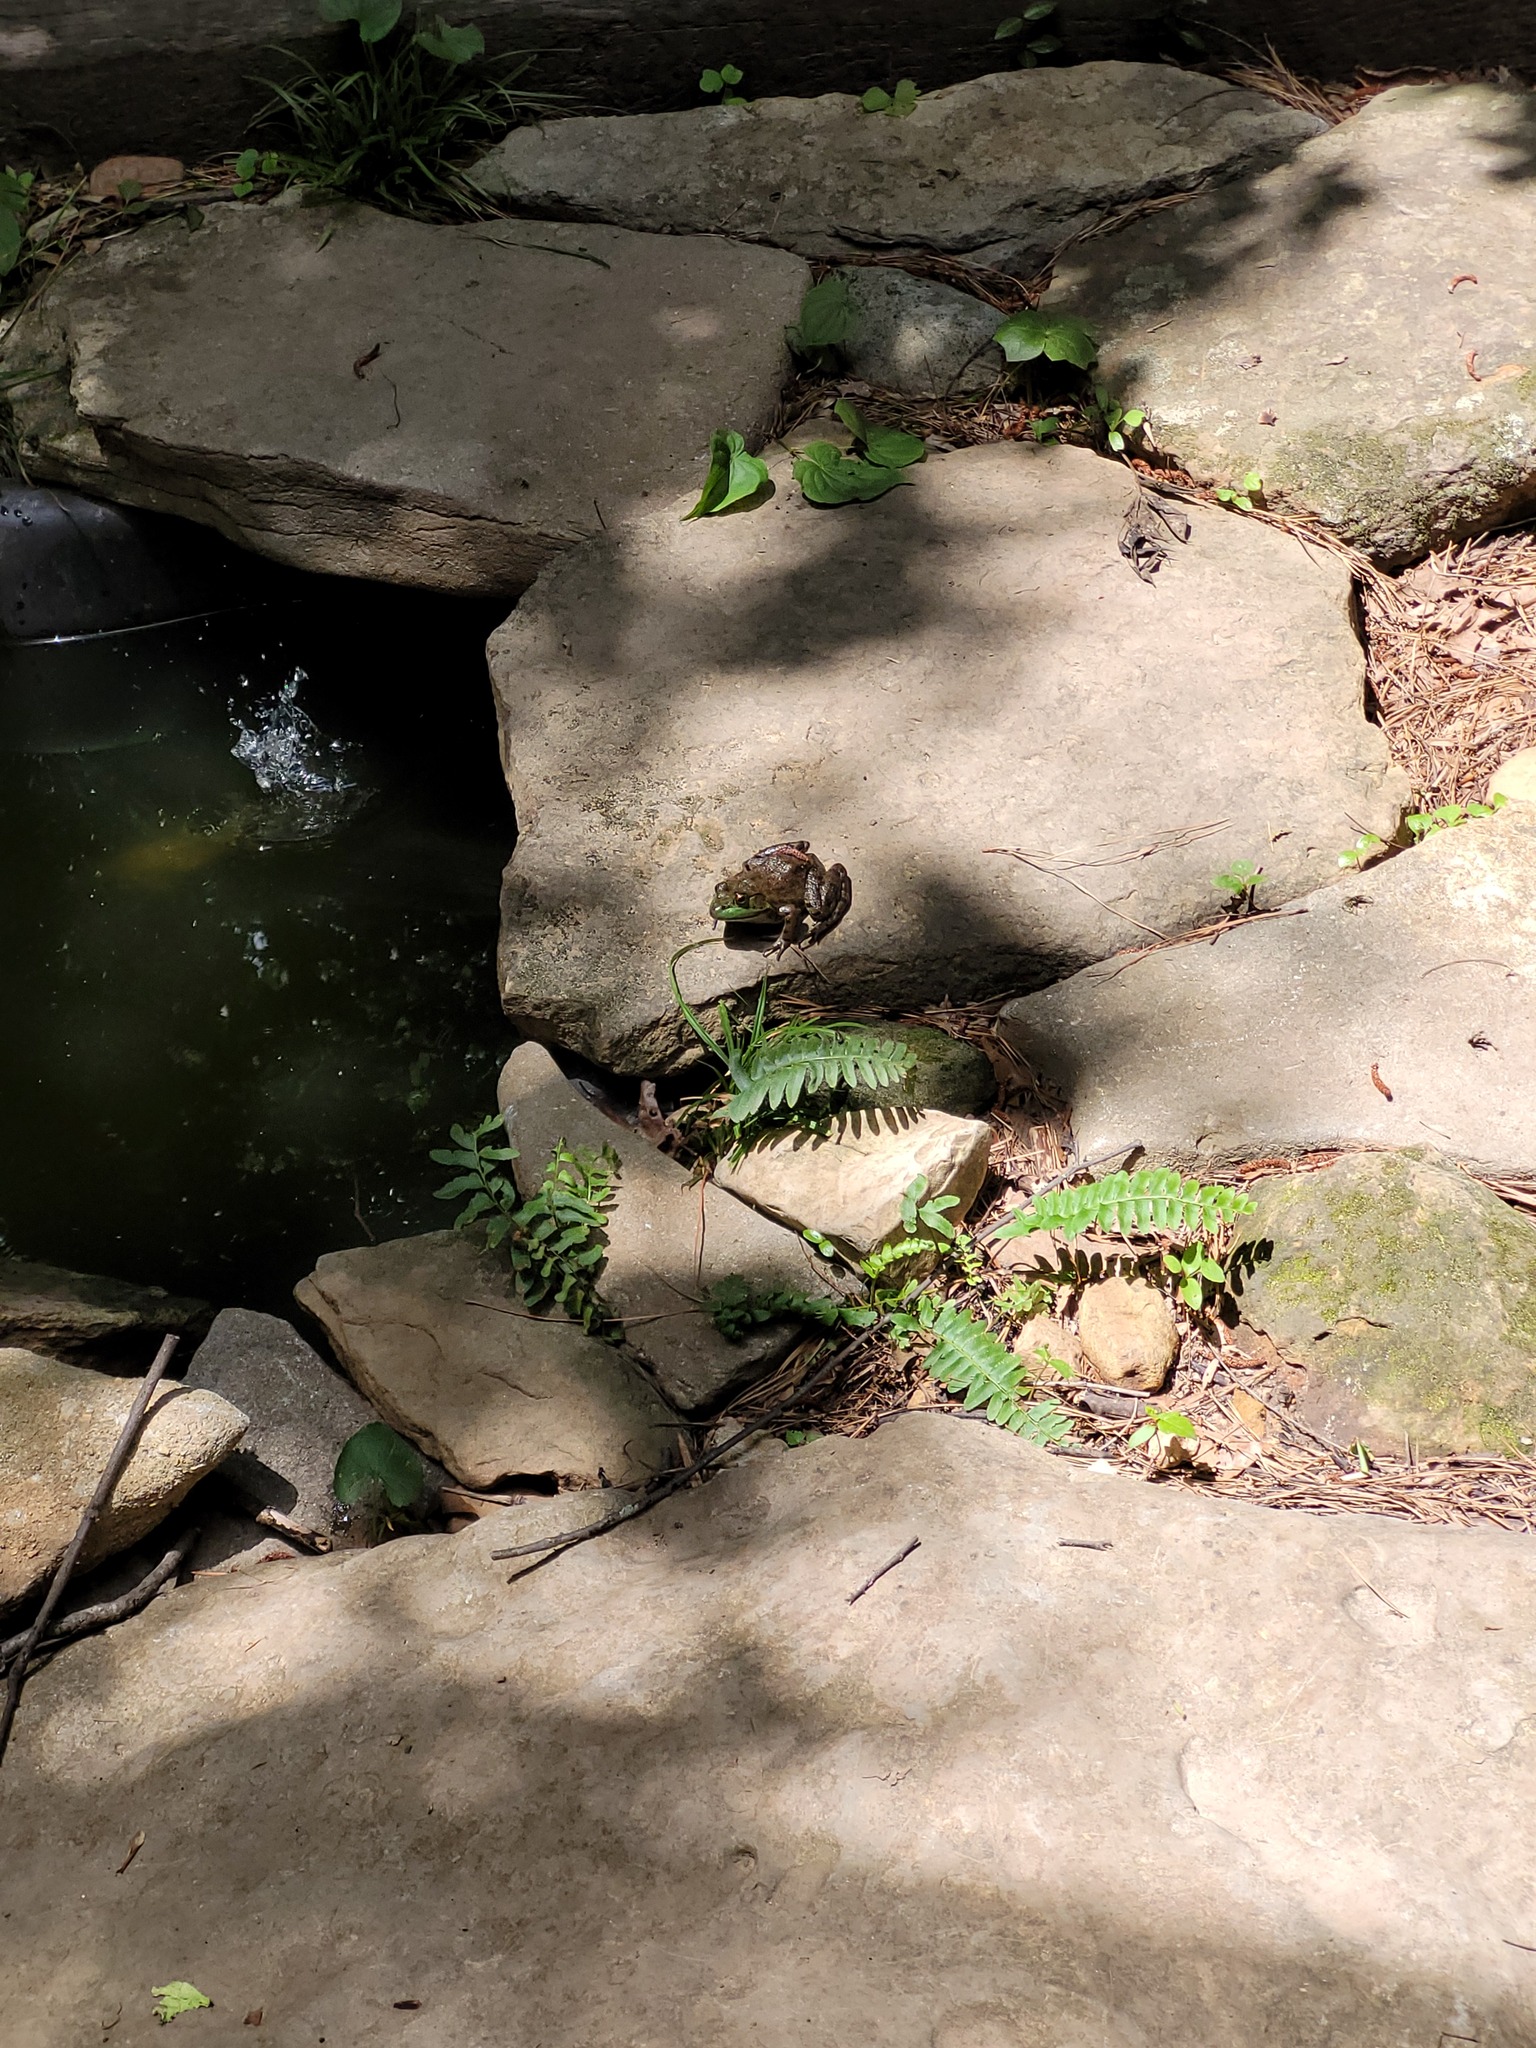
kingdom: Animalia
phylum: Chordata
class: Amphibia
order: Anura
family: Ranidae
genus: Lithobates
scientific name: Lithobates catesbeianus
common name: American bullfrog
